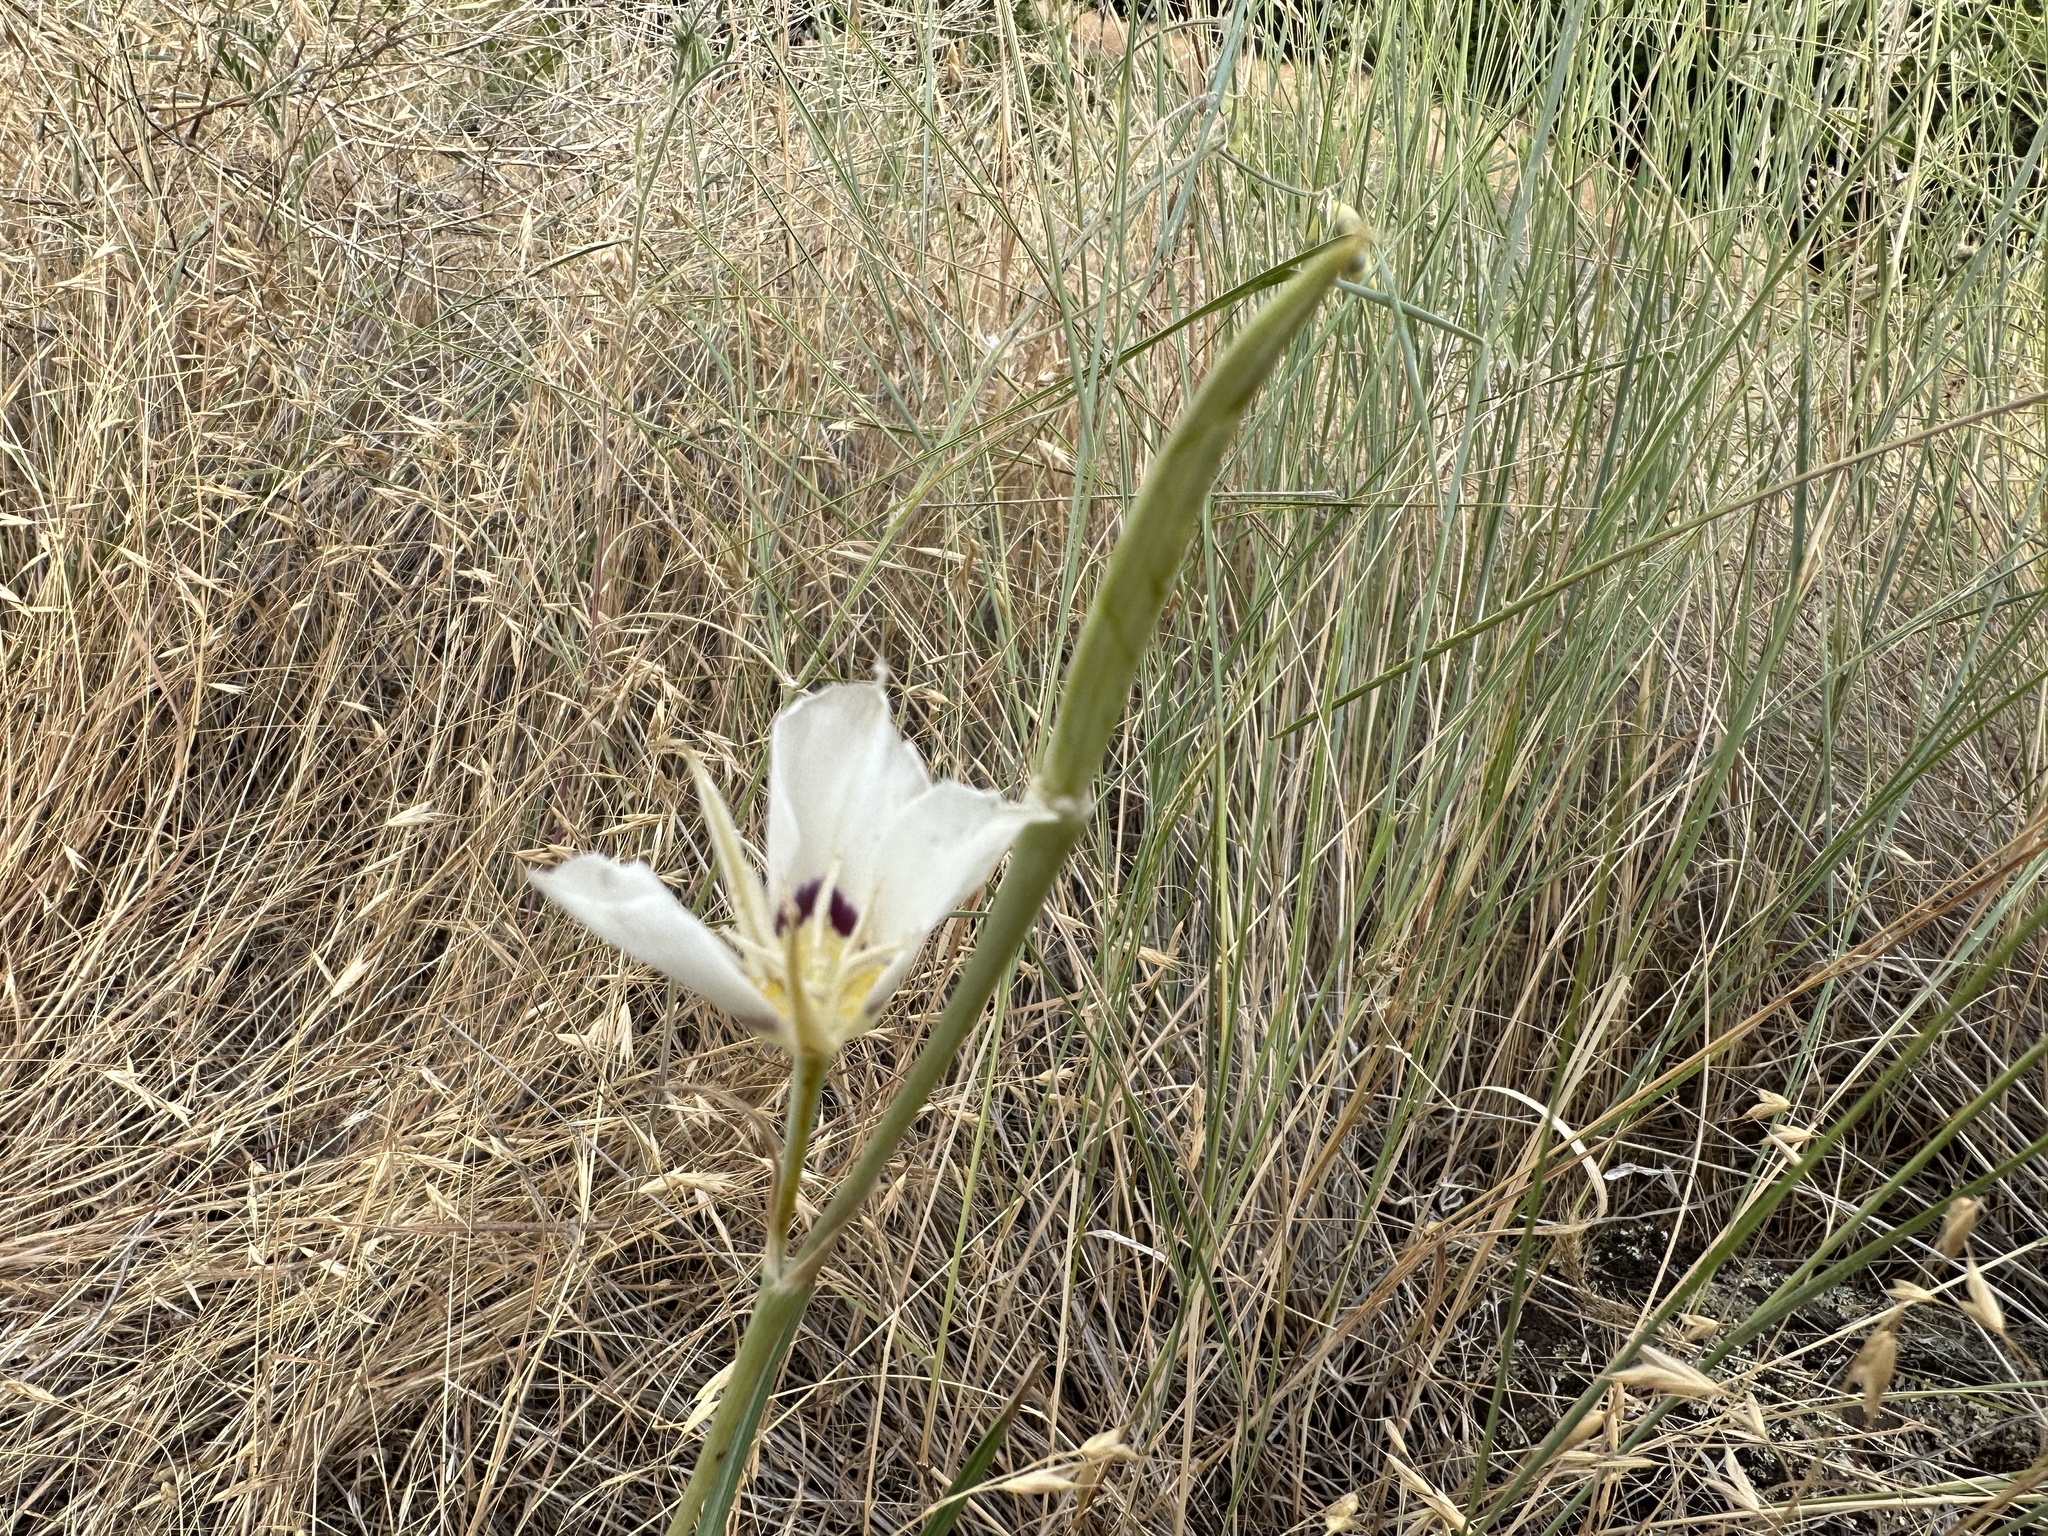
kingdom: Plantae
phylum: Tracheophyta
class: Liliopsida
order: Liliales
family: Liliaceae
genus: Calochortus
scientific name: Calochortus macrocarpus
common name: Green-band mariposa lily
